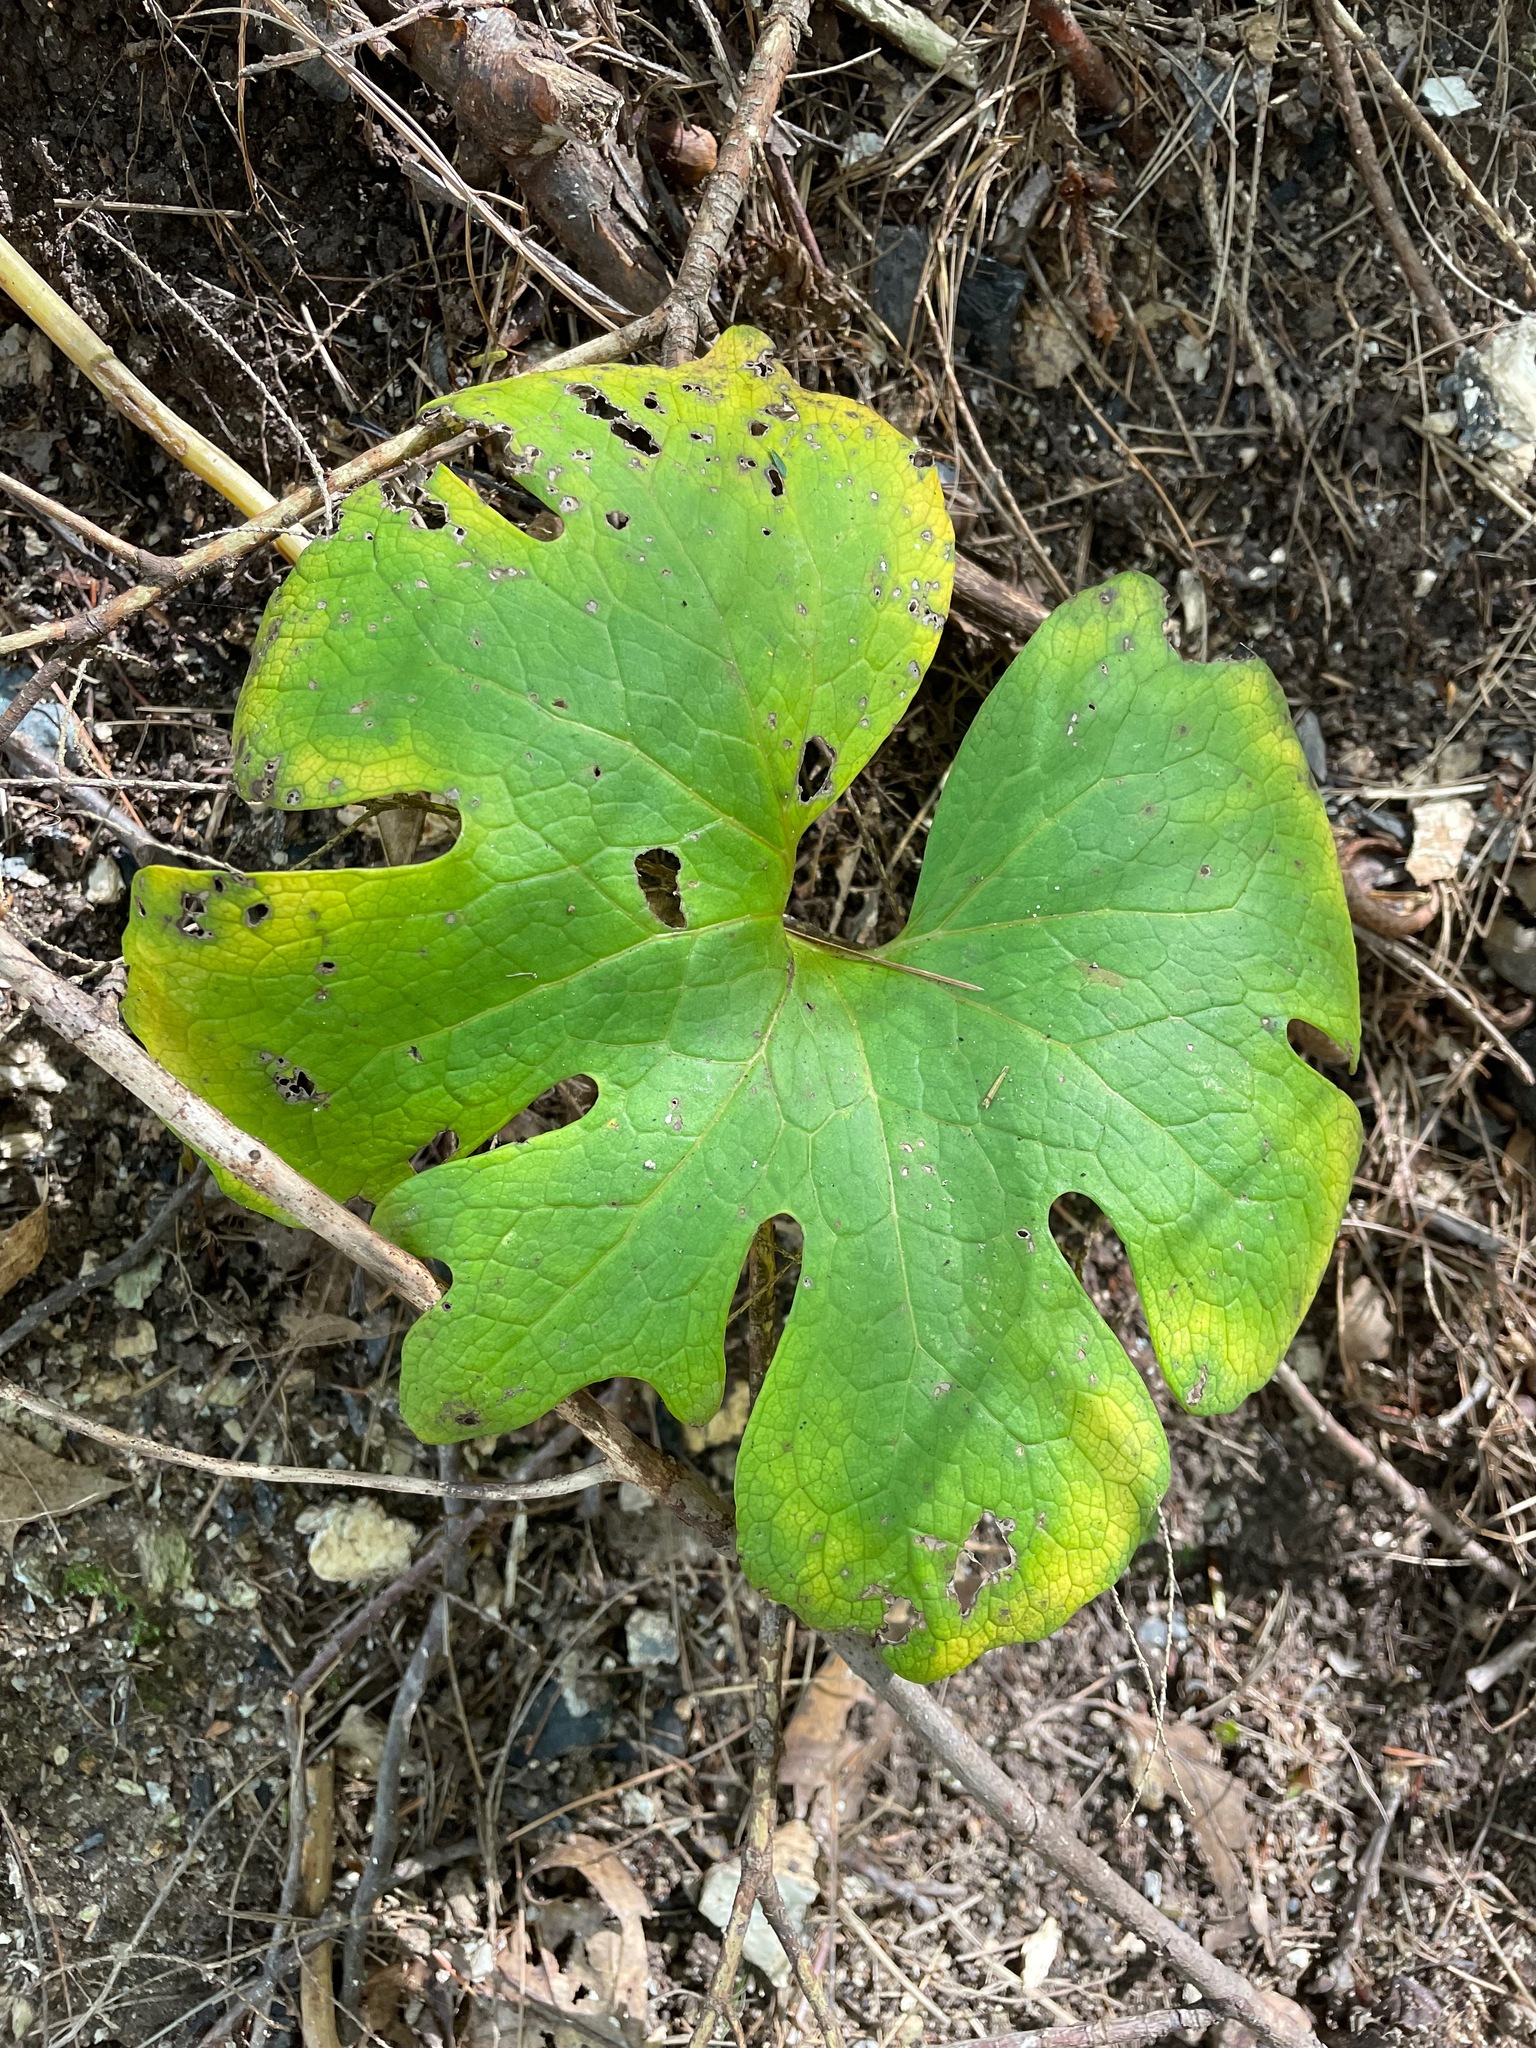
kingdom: Plantae
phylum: Tracheophyta
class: Magnoliopsida
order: Ranunculales
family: Papaveraceae
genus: Sanguinaria
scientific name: Sanguinaria canadensis
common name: Bloodroot
